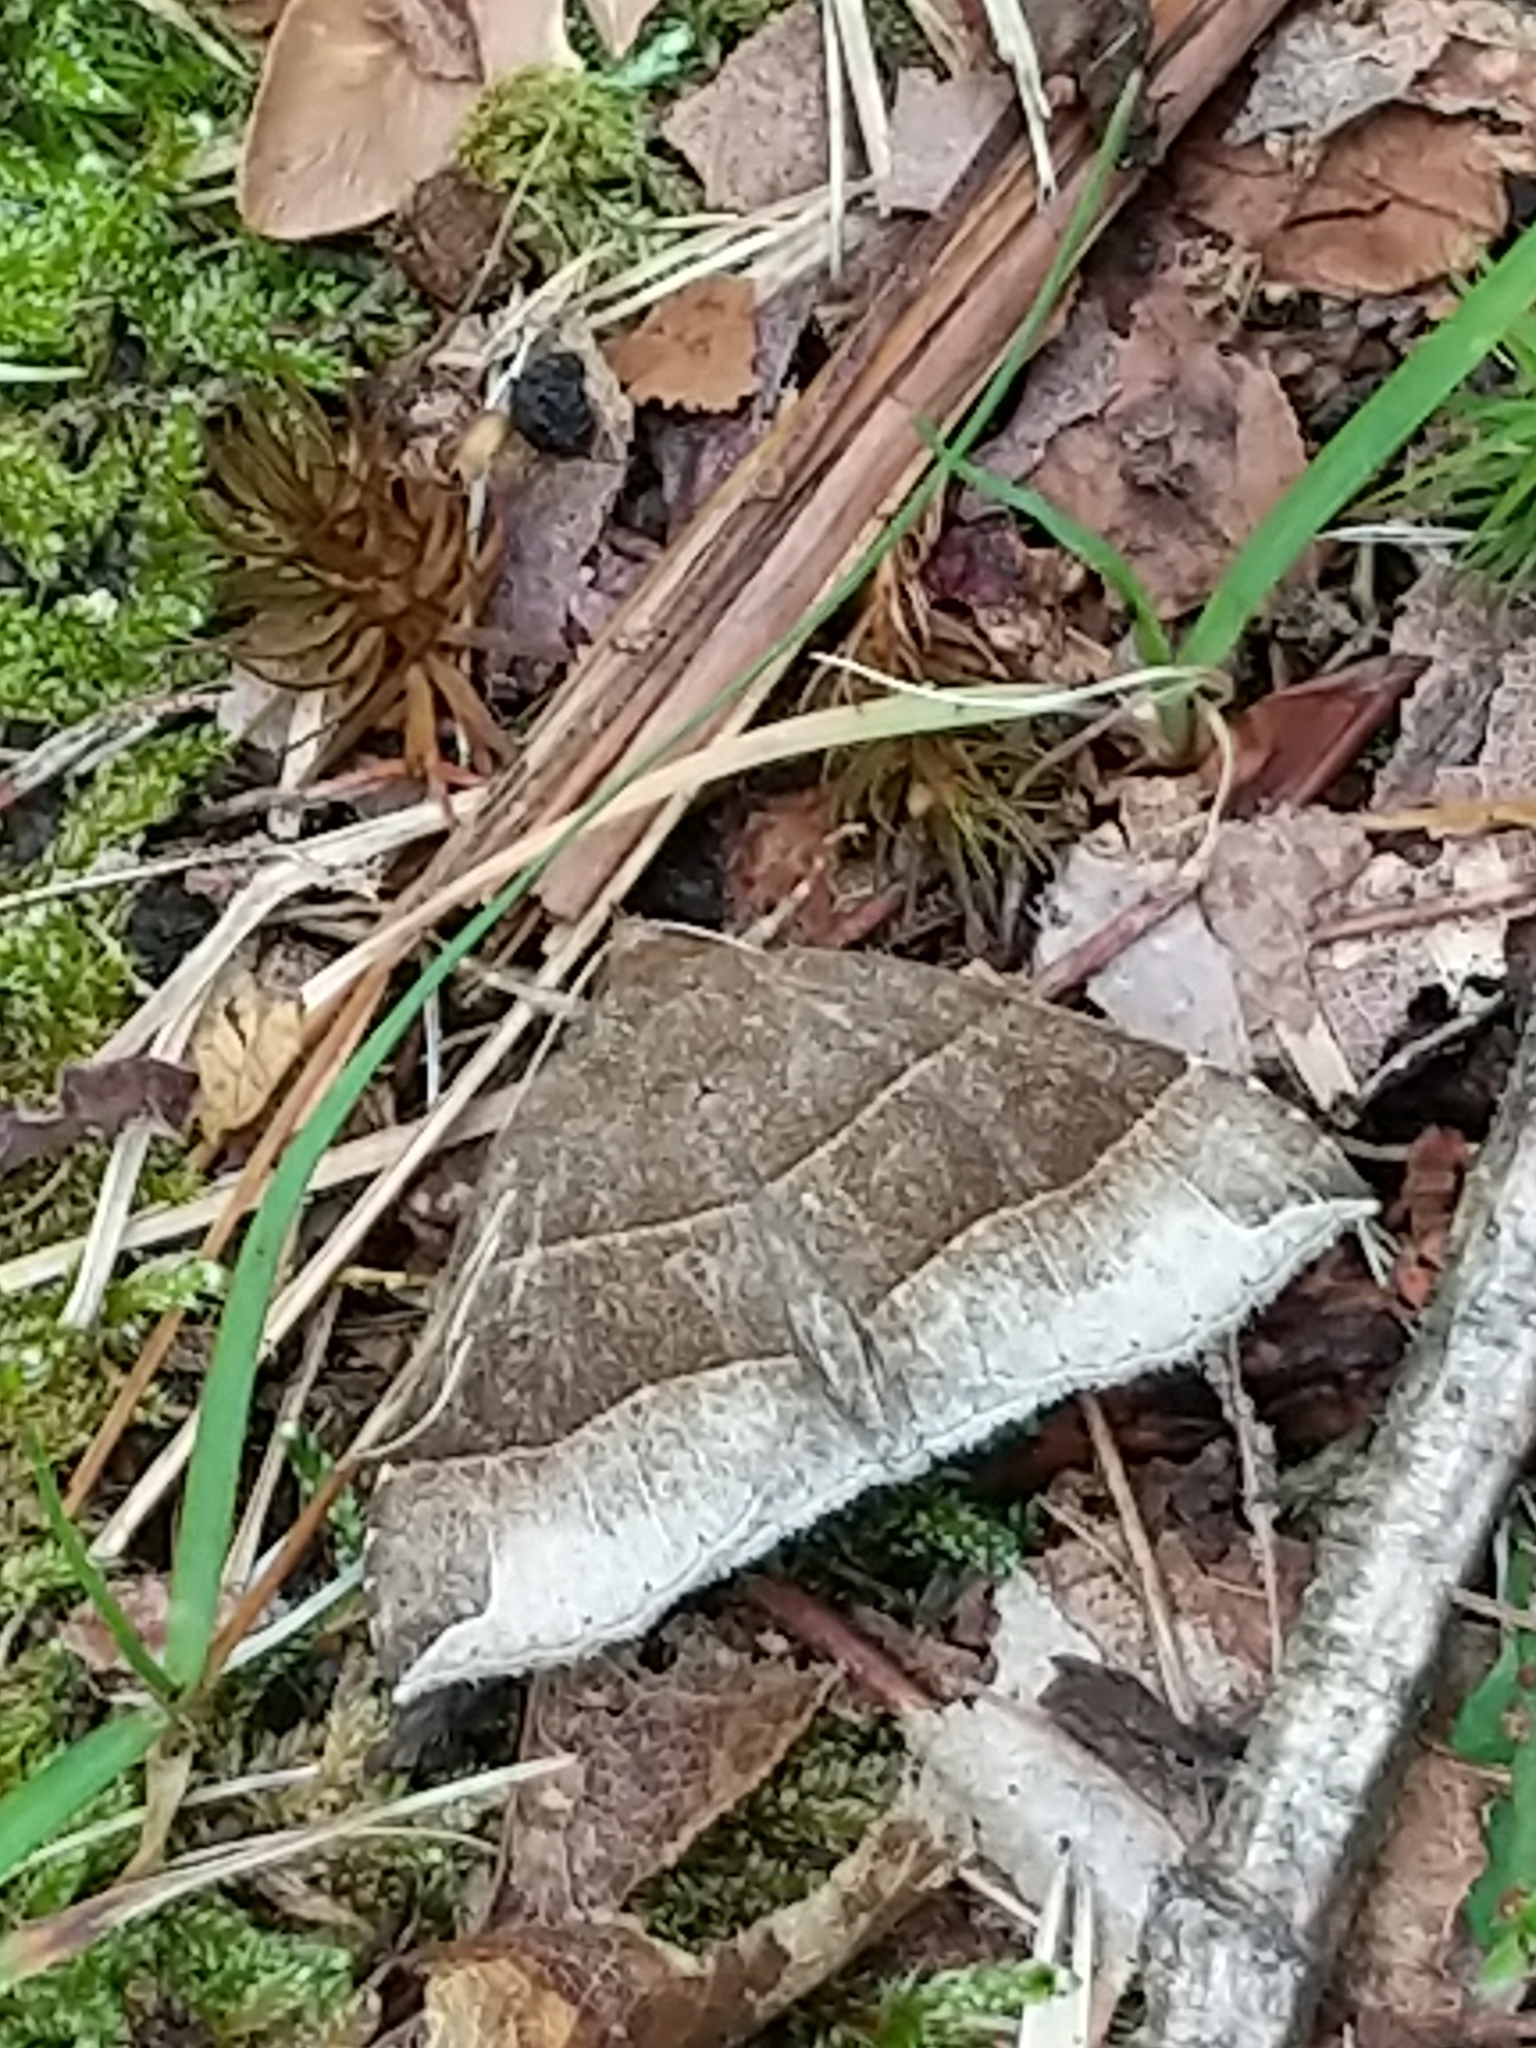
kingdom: Animalia
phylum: Arthropoda
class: Insecta
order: Lepidoptera
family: Erebidae
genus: Parallelia
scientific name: Parallelia bistriaris
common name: Maple looper moth
